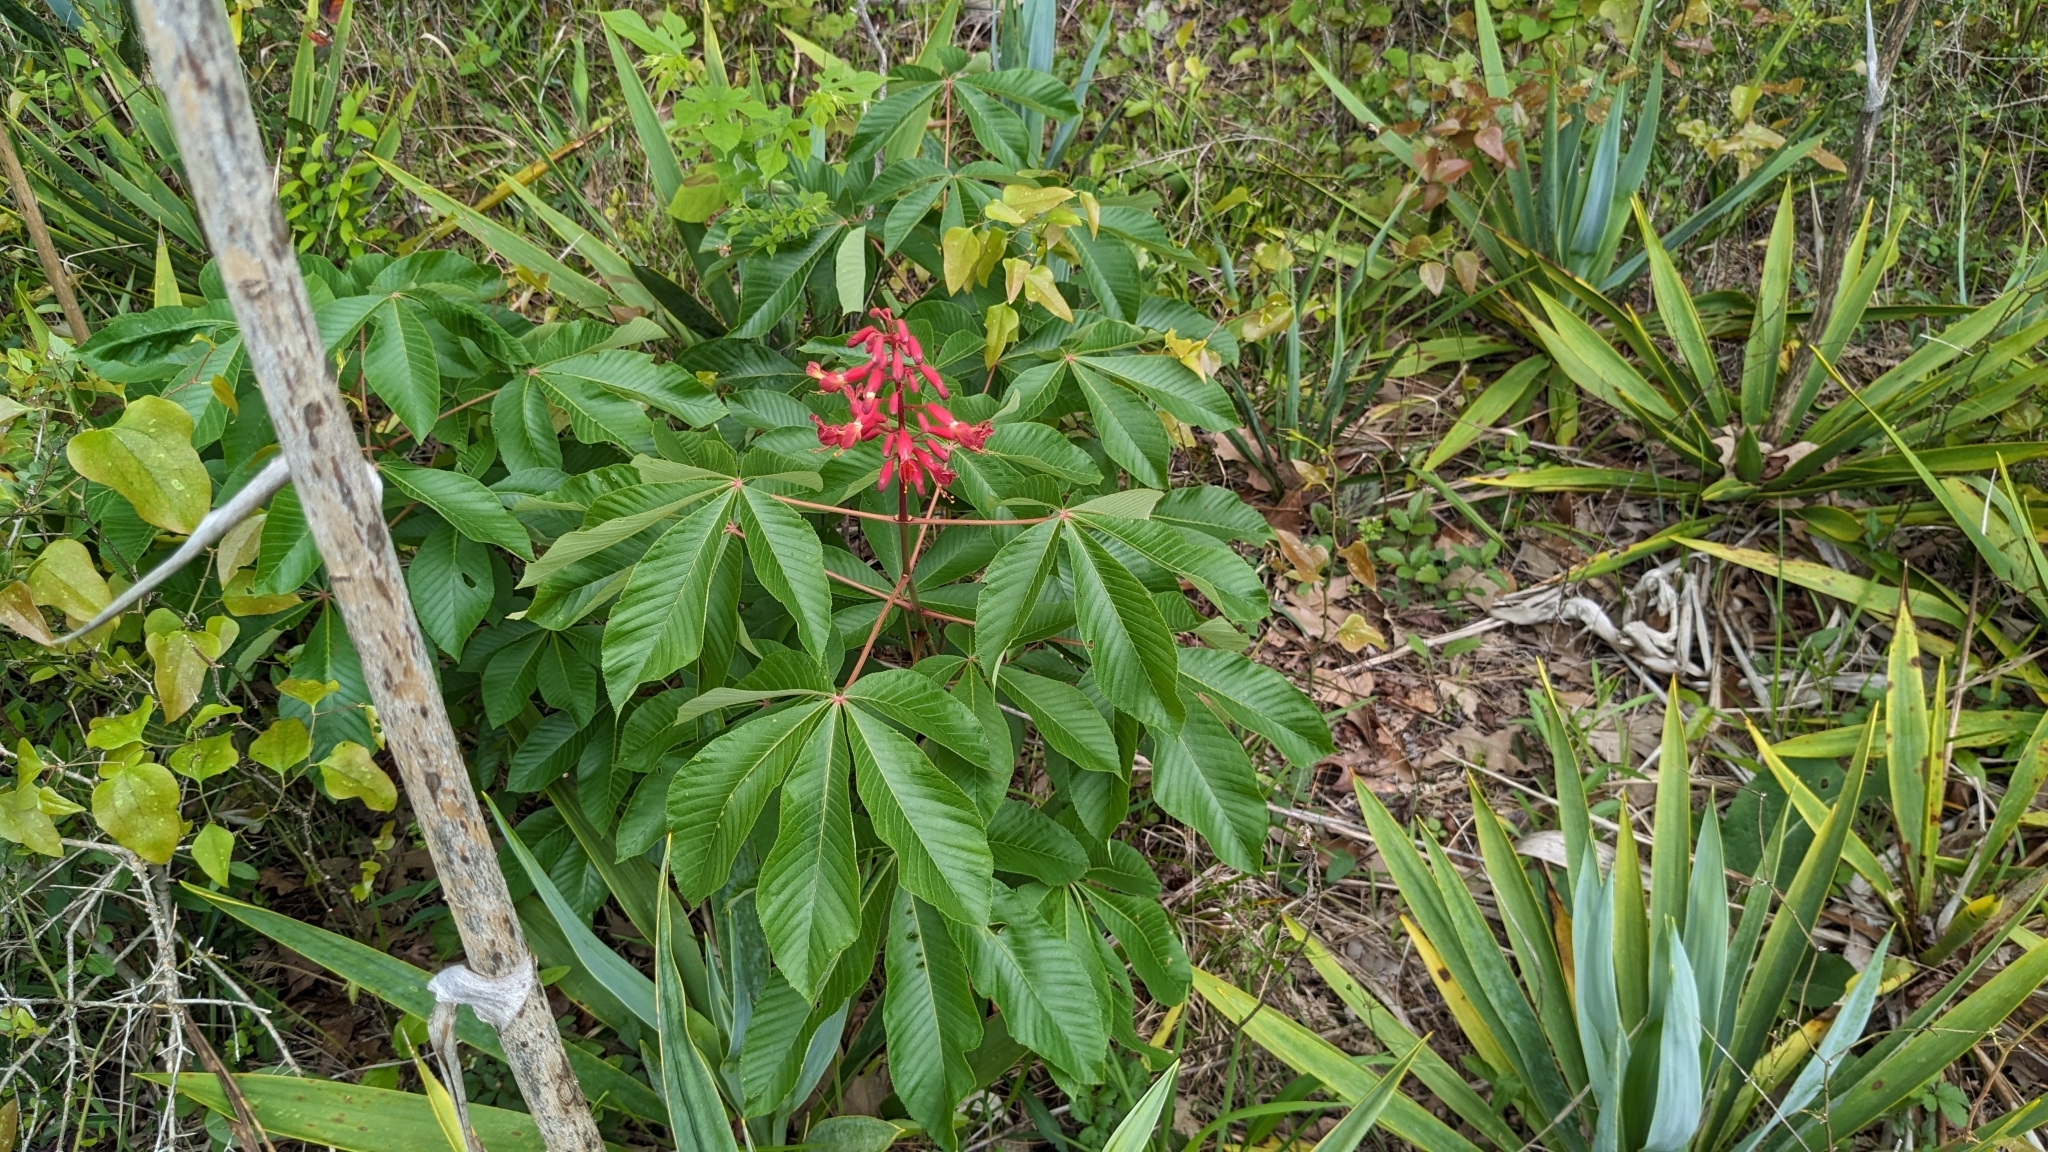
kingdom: Plantae
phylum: Tracheophyta
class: Magnoliopsida
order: Sapindales
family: Sapindaceae
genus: Aesculus
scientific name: Aesculus pavia
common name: Red buckeye
